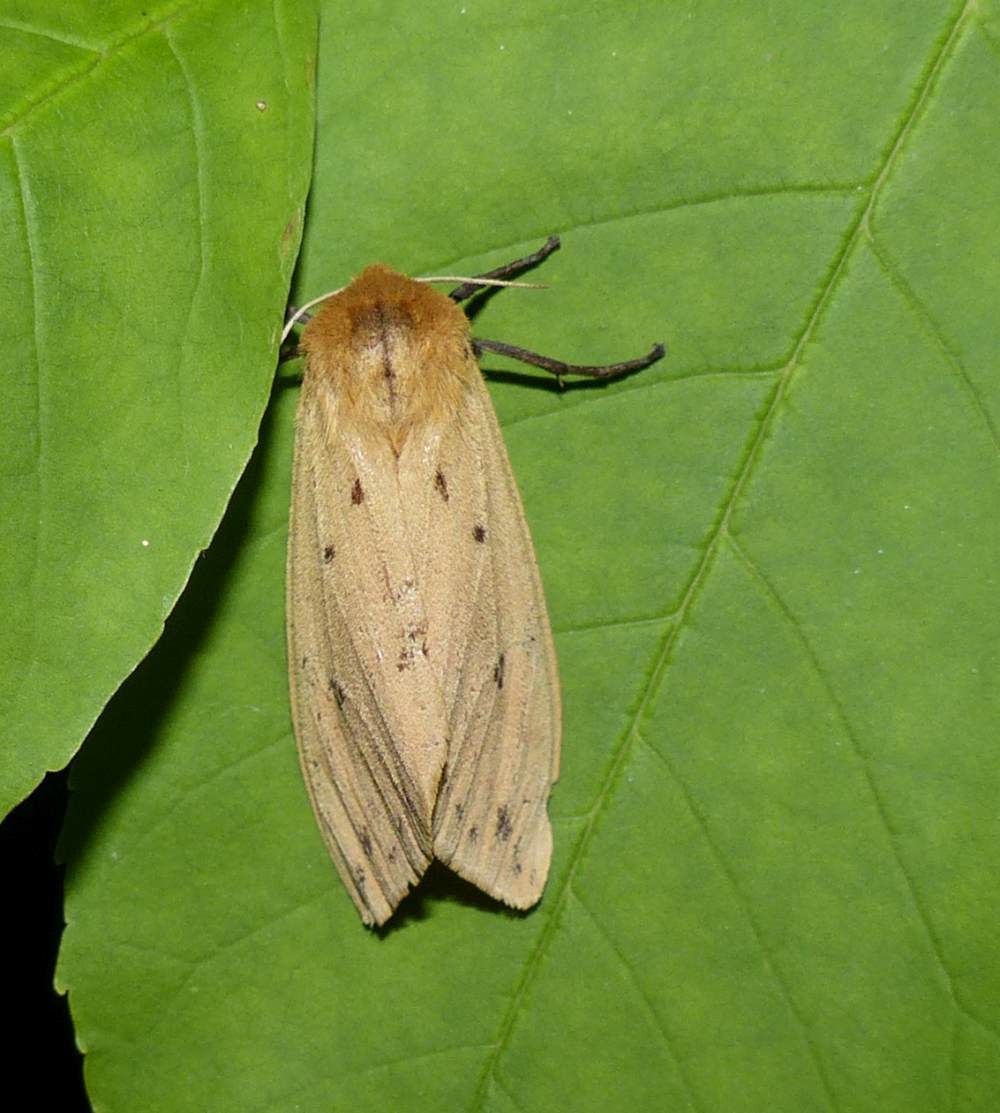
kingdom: Animalia
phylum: Arthropoda
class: Insecta
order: Lepidoptera
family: Erebidae
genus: Pyrrharctia
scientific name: Pyrrharctia isabella
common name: Isabella tiger moth
